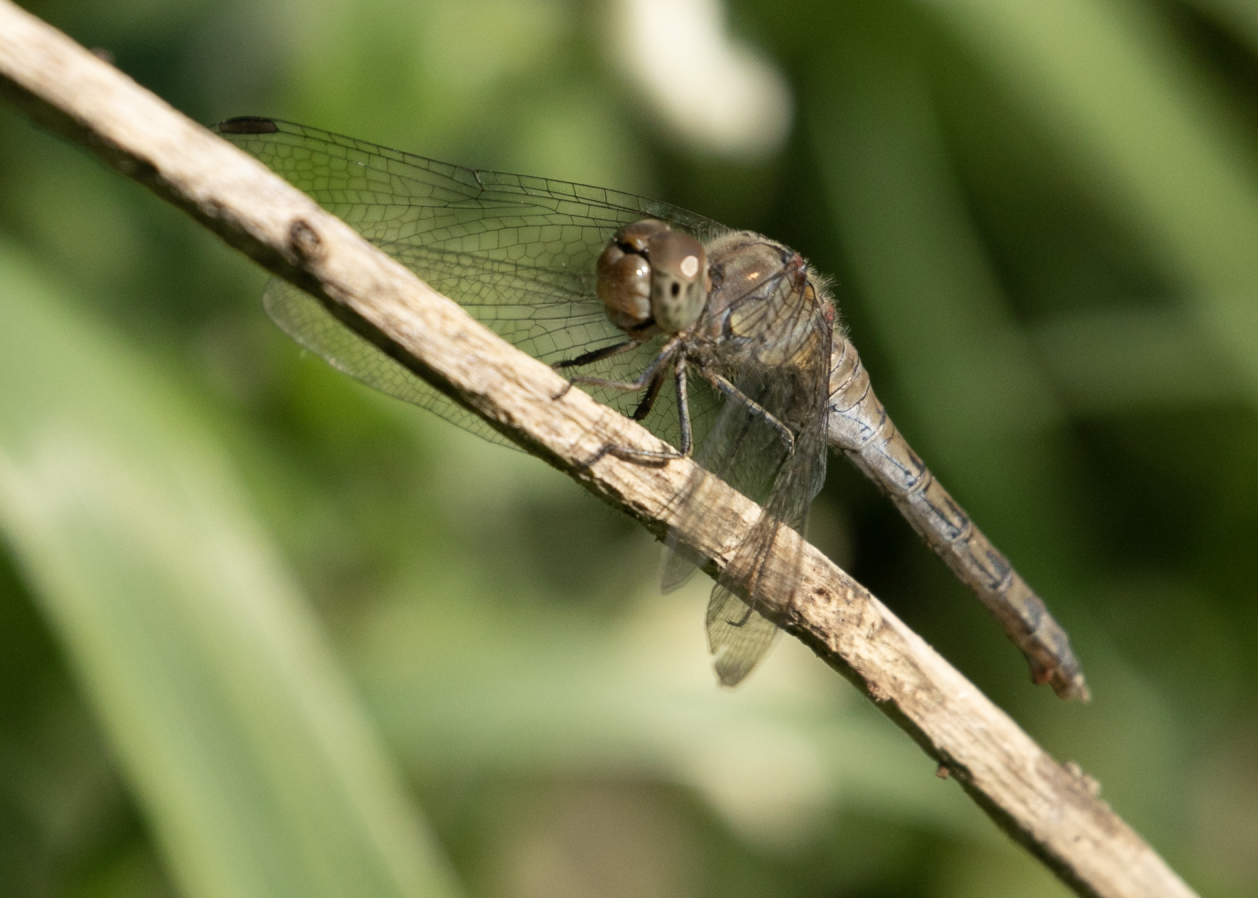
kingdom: Animalia
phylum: Arthropoda
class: Insecta
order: Odonata
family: Libellulidae
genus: Sympetrum
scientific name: Sympetrum striolatum
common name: Common darter
